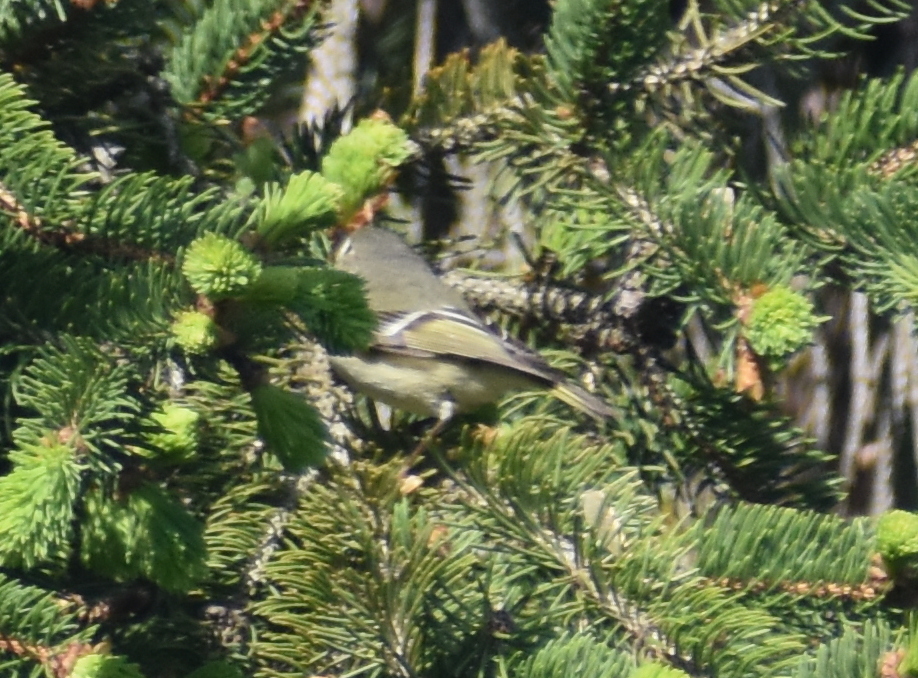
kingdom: Animalia
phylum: Chordata
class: Aves
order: Passeriformes
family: Regulidae
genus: Regulus
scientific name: Regulus calendula
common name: Ruby-crowned kinglet
